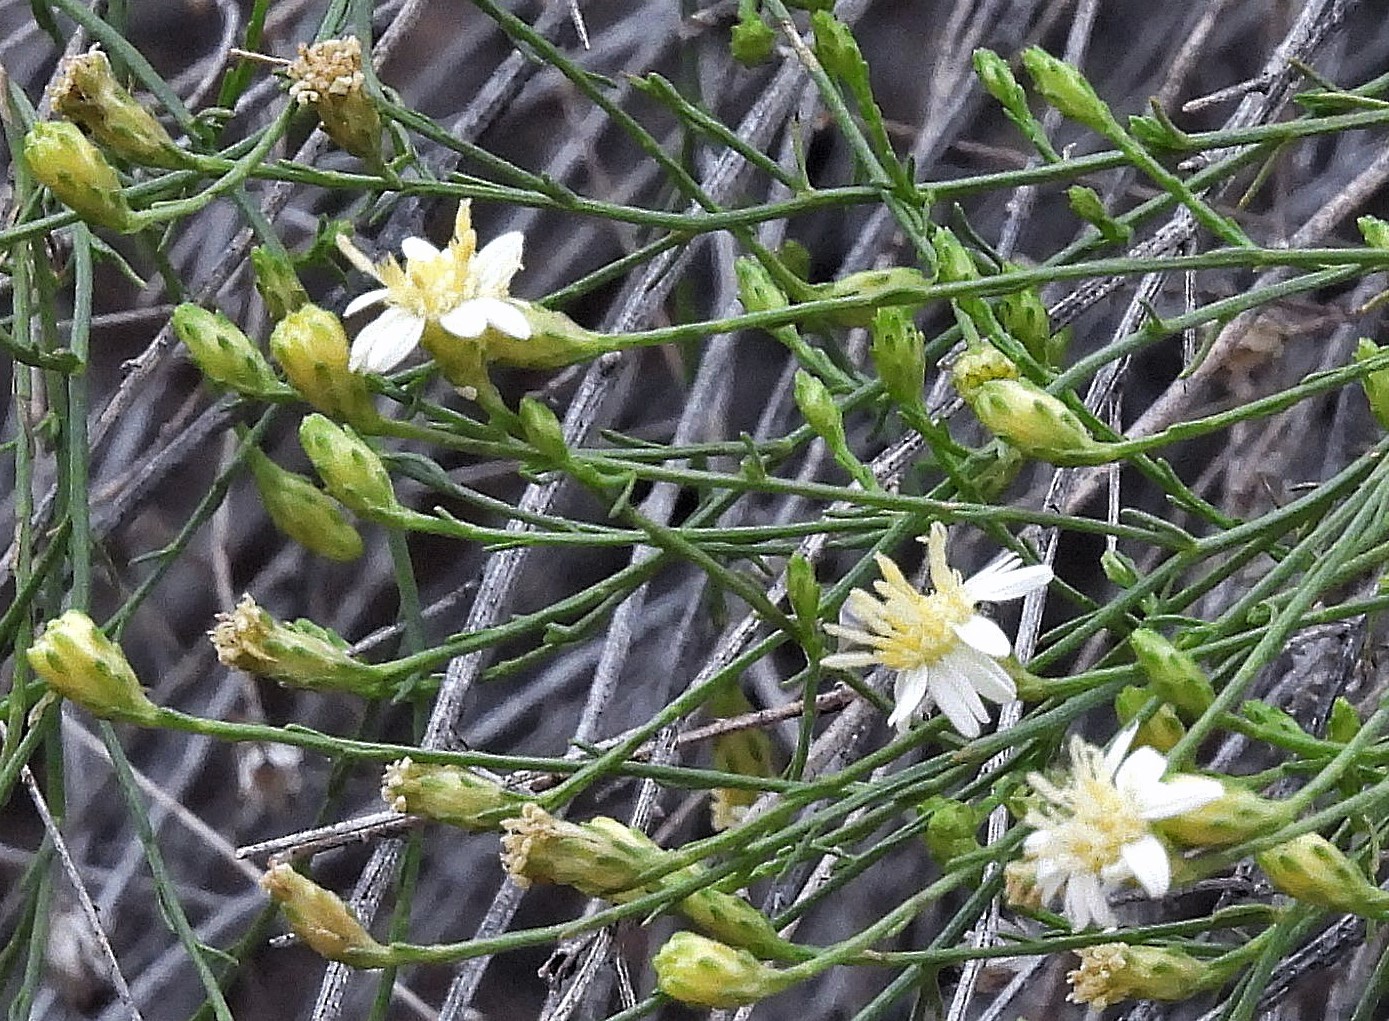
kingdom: Plantae
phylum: Tracheophyta
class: Magnoliopsida
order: Asterales
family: Asteraceae
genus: Gutierrezia
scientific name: Gutierrezia gilliesii
